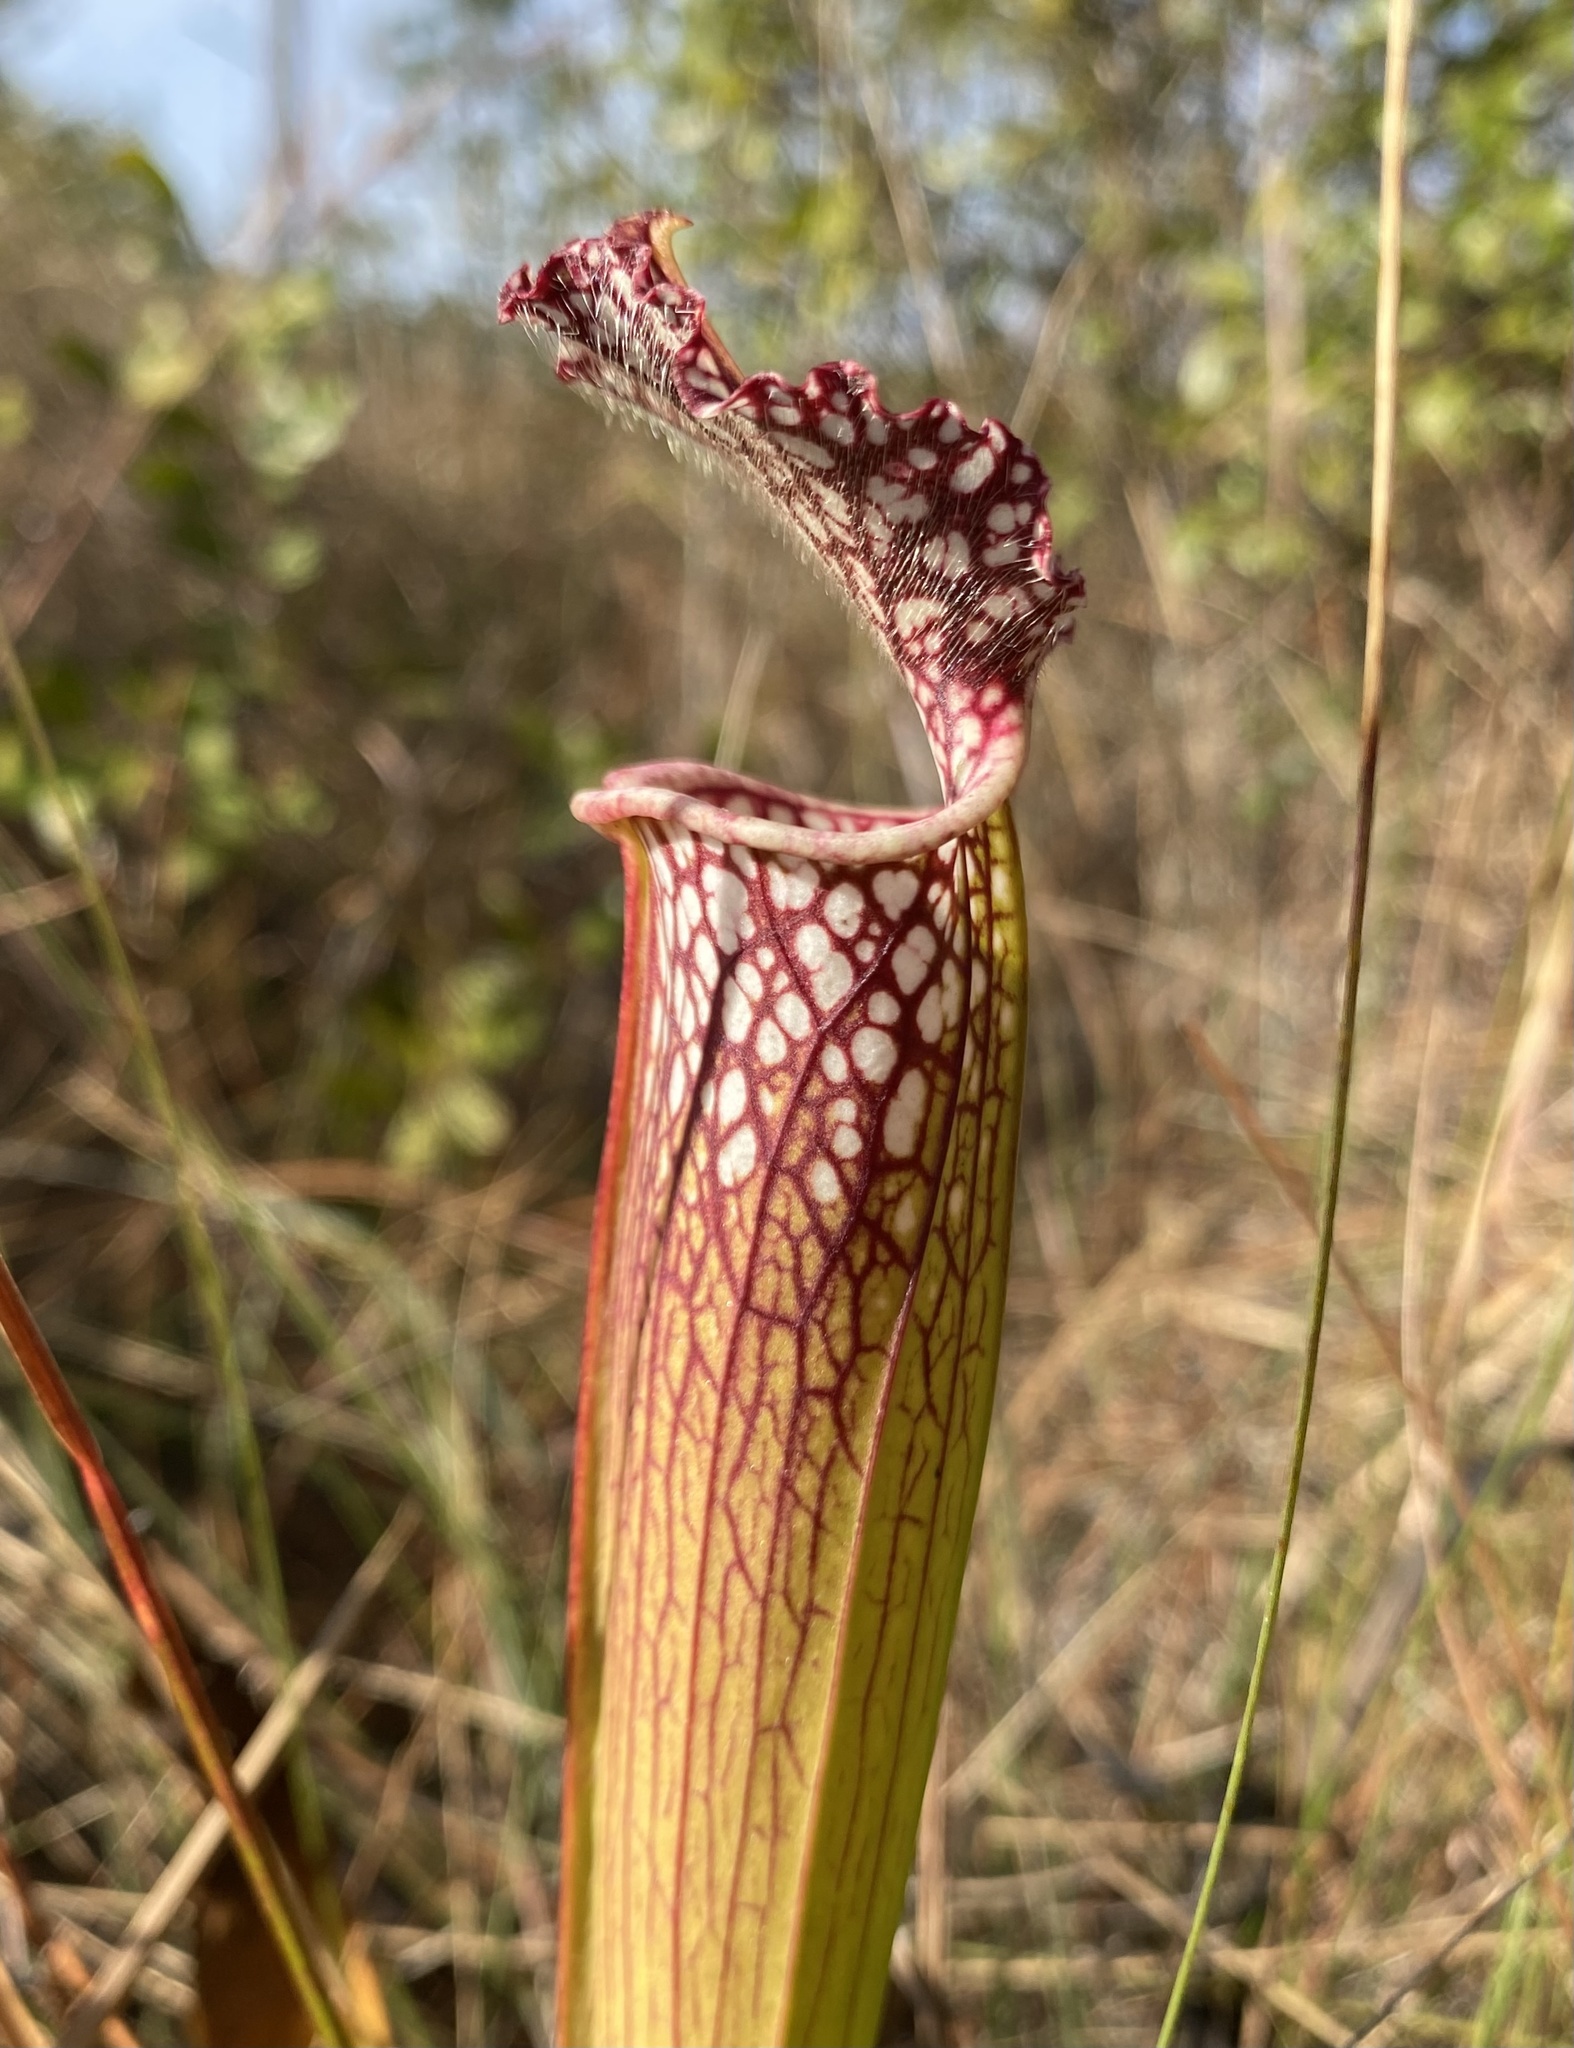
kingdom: Plantae
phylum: Tracheophyta
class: Magnoliopsida
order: Ericales
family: Sarraceniaceae
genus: Sarracenia
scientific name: Sarracenia leucophylla
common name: Purple trumpetleaf
